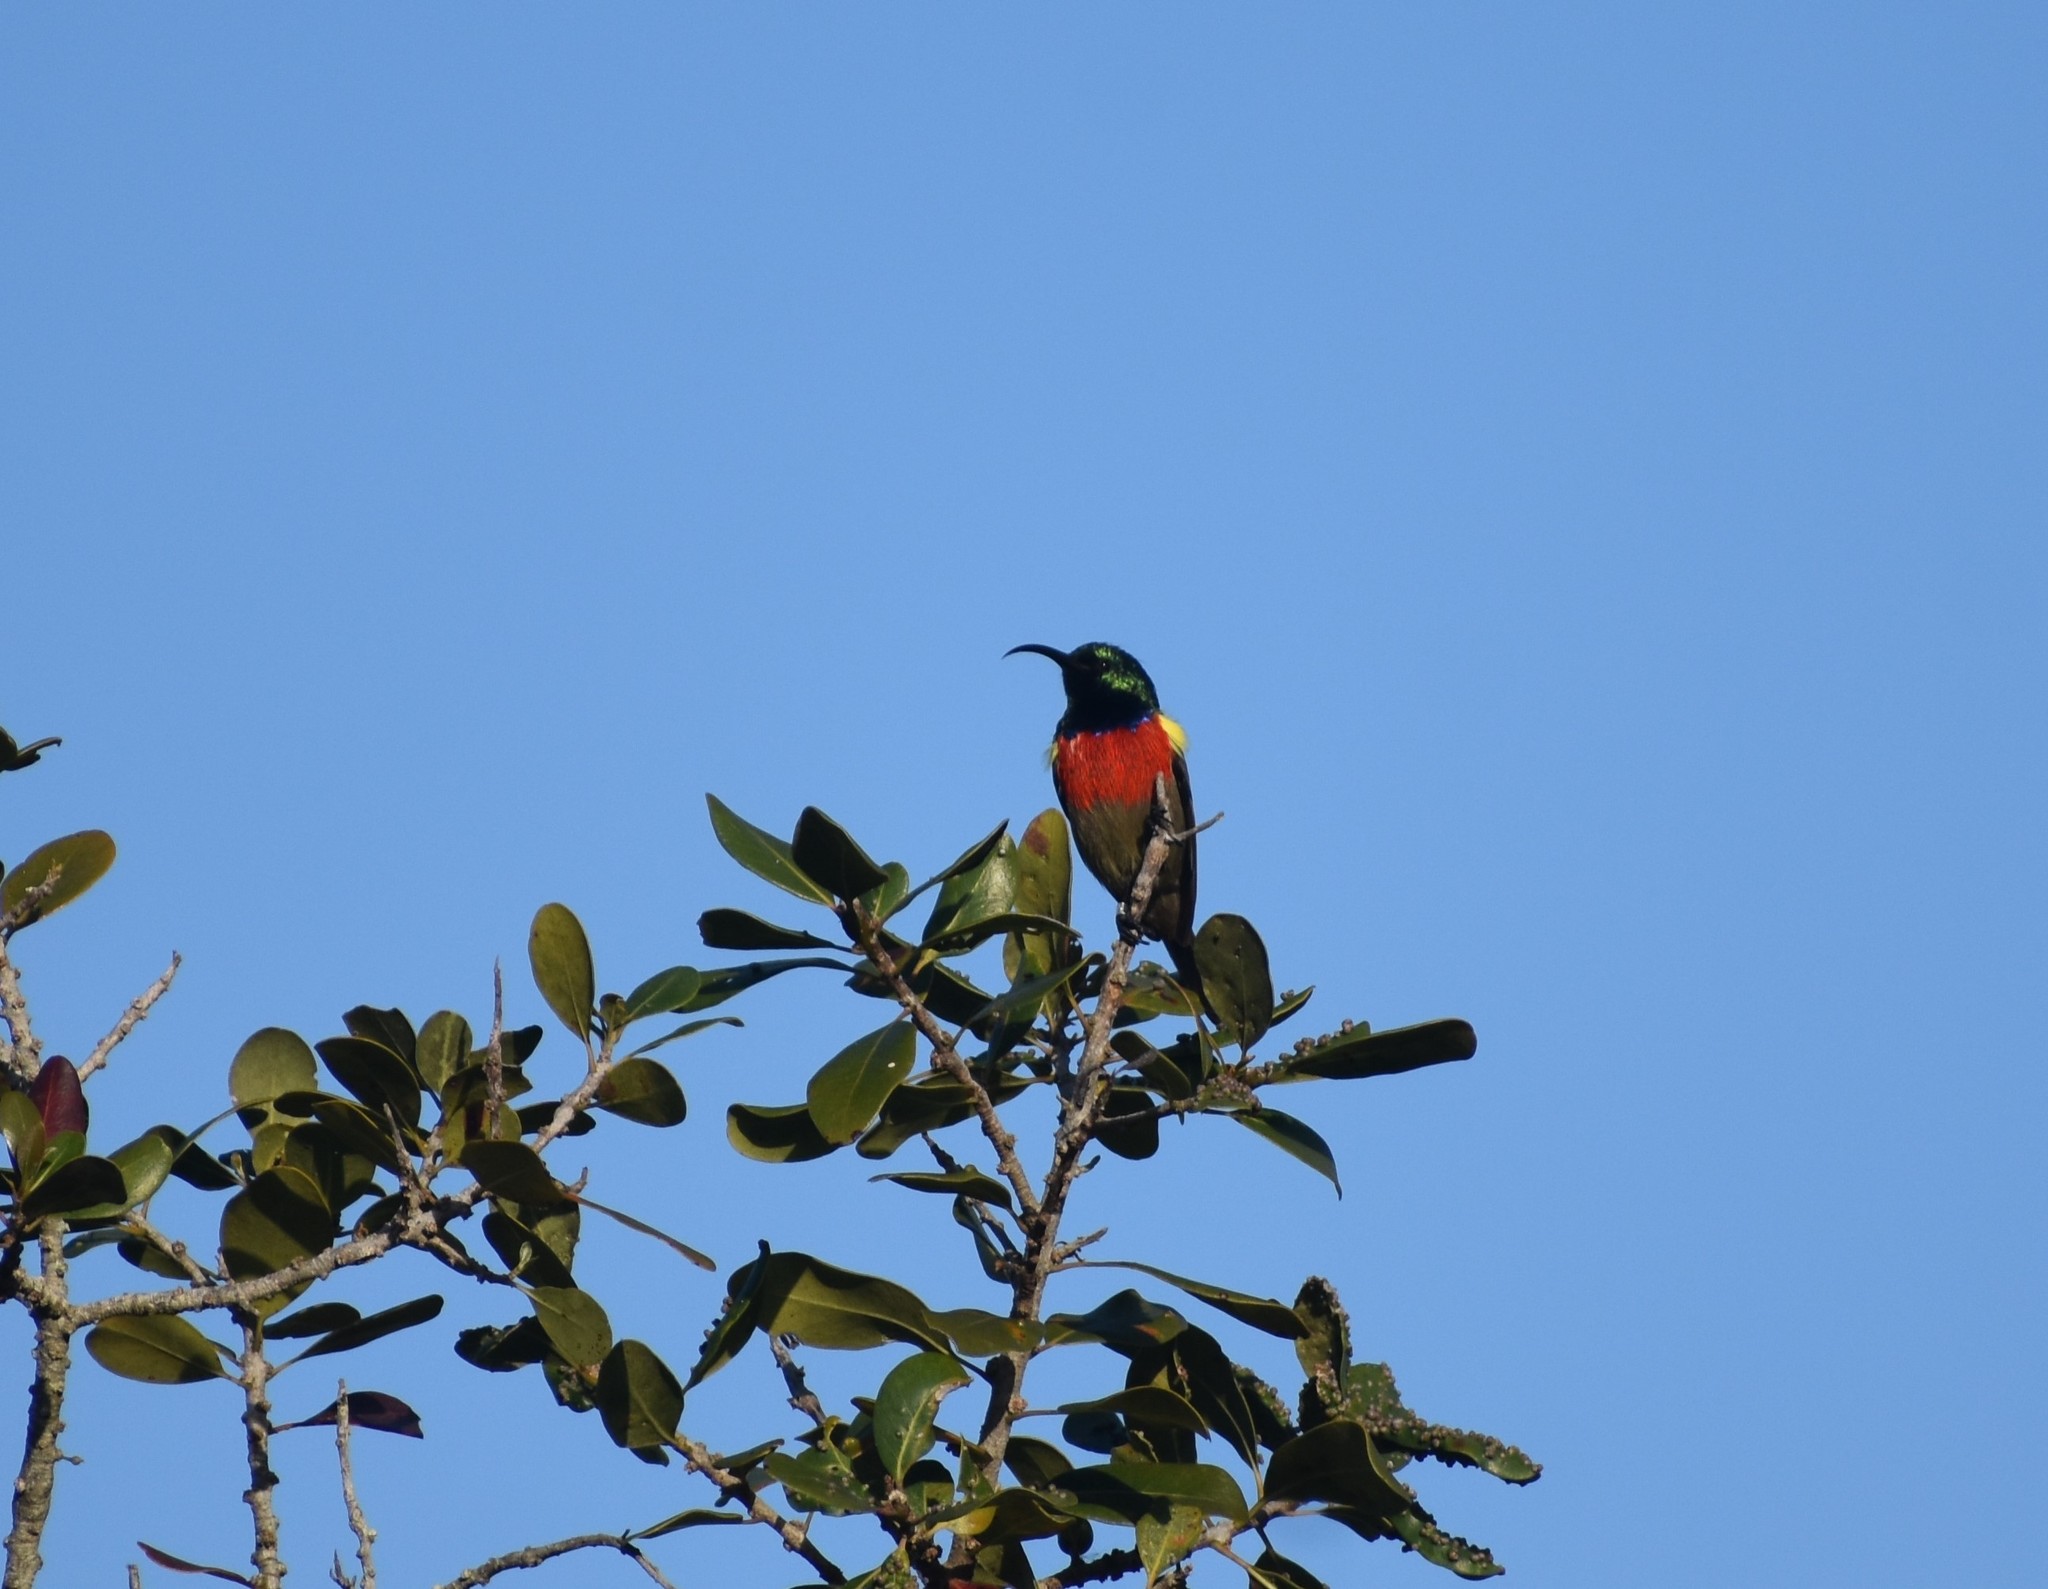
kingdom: Animalia
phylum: Chordata
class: Aves
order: Passeriformes
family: Nectariniidae
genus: Cinnyris
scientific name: Cinnyris afer
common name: Greater double-collared sunbird
